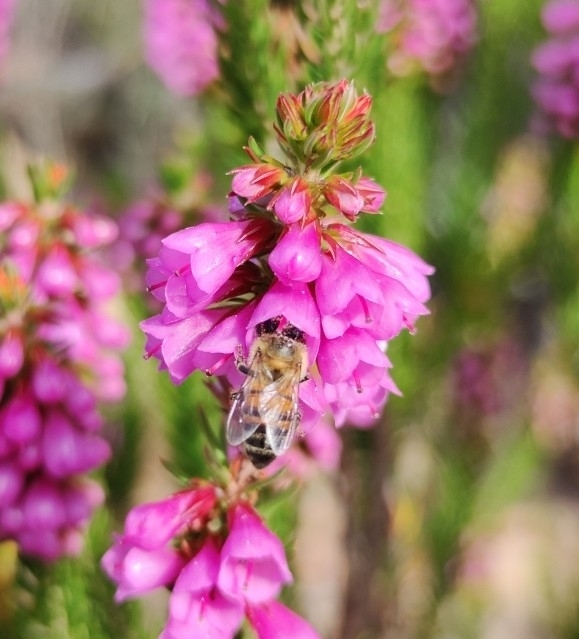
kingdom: Plantae
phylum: Tracheophyta
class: Magnoliopsida
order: Ericales
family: Ericaceae
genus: Erica
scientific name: Erica abietina
